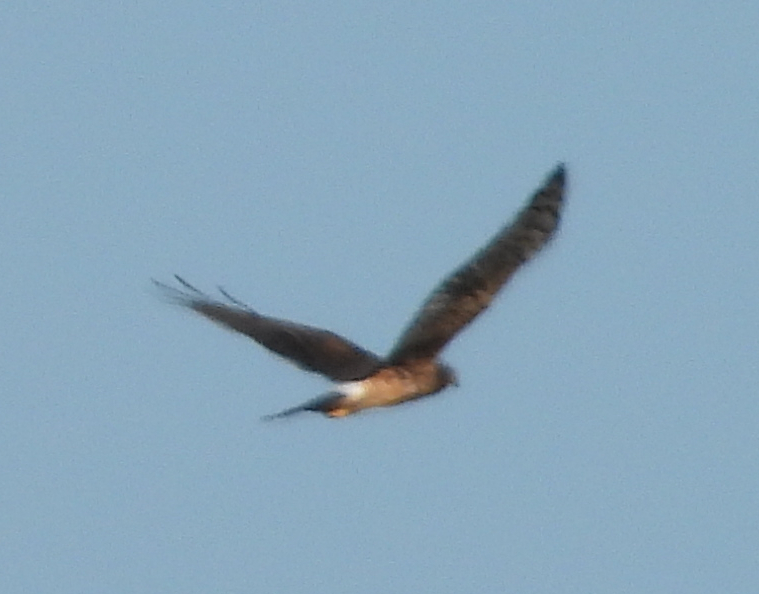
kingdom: Animalia
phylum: Chordata
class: Aves
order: Accipitriformes
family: Accipitridae
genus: Circus
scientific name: Circus cyaneus
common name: Hen harrier
